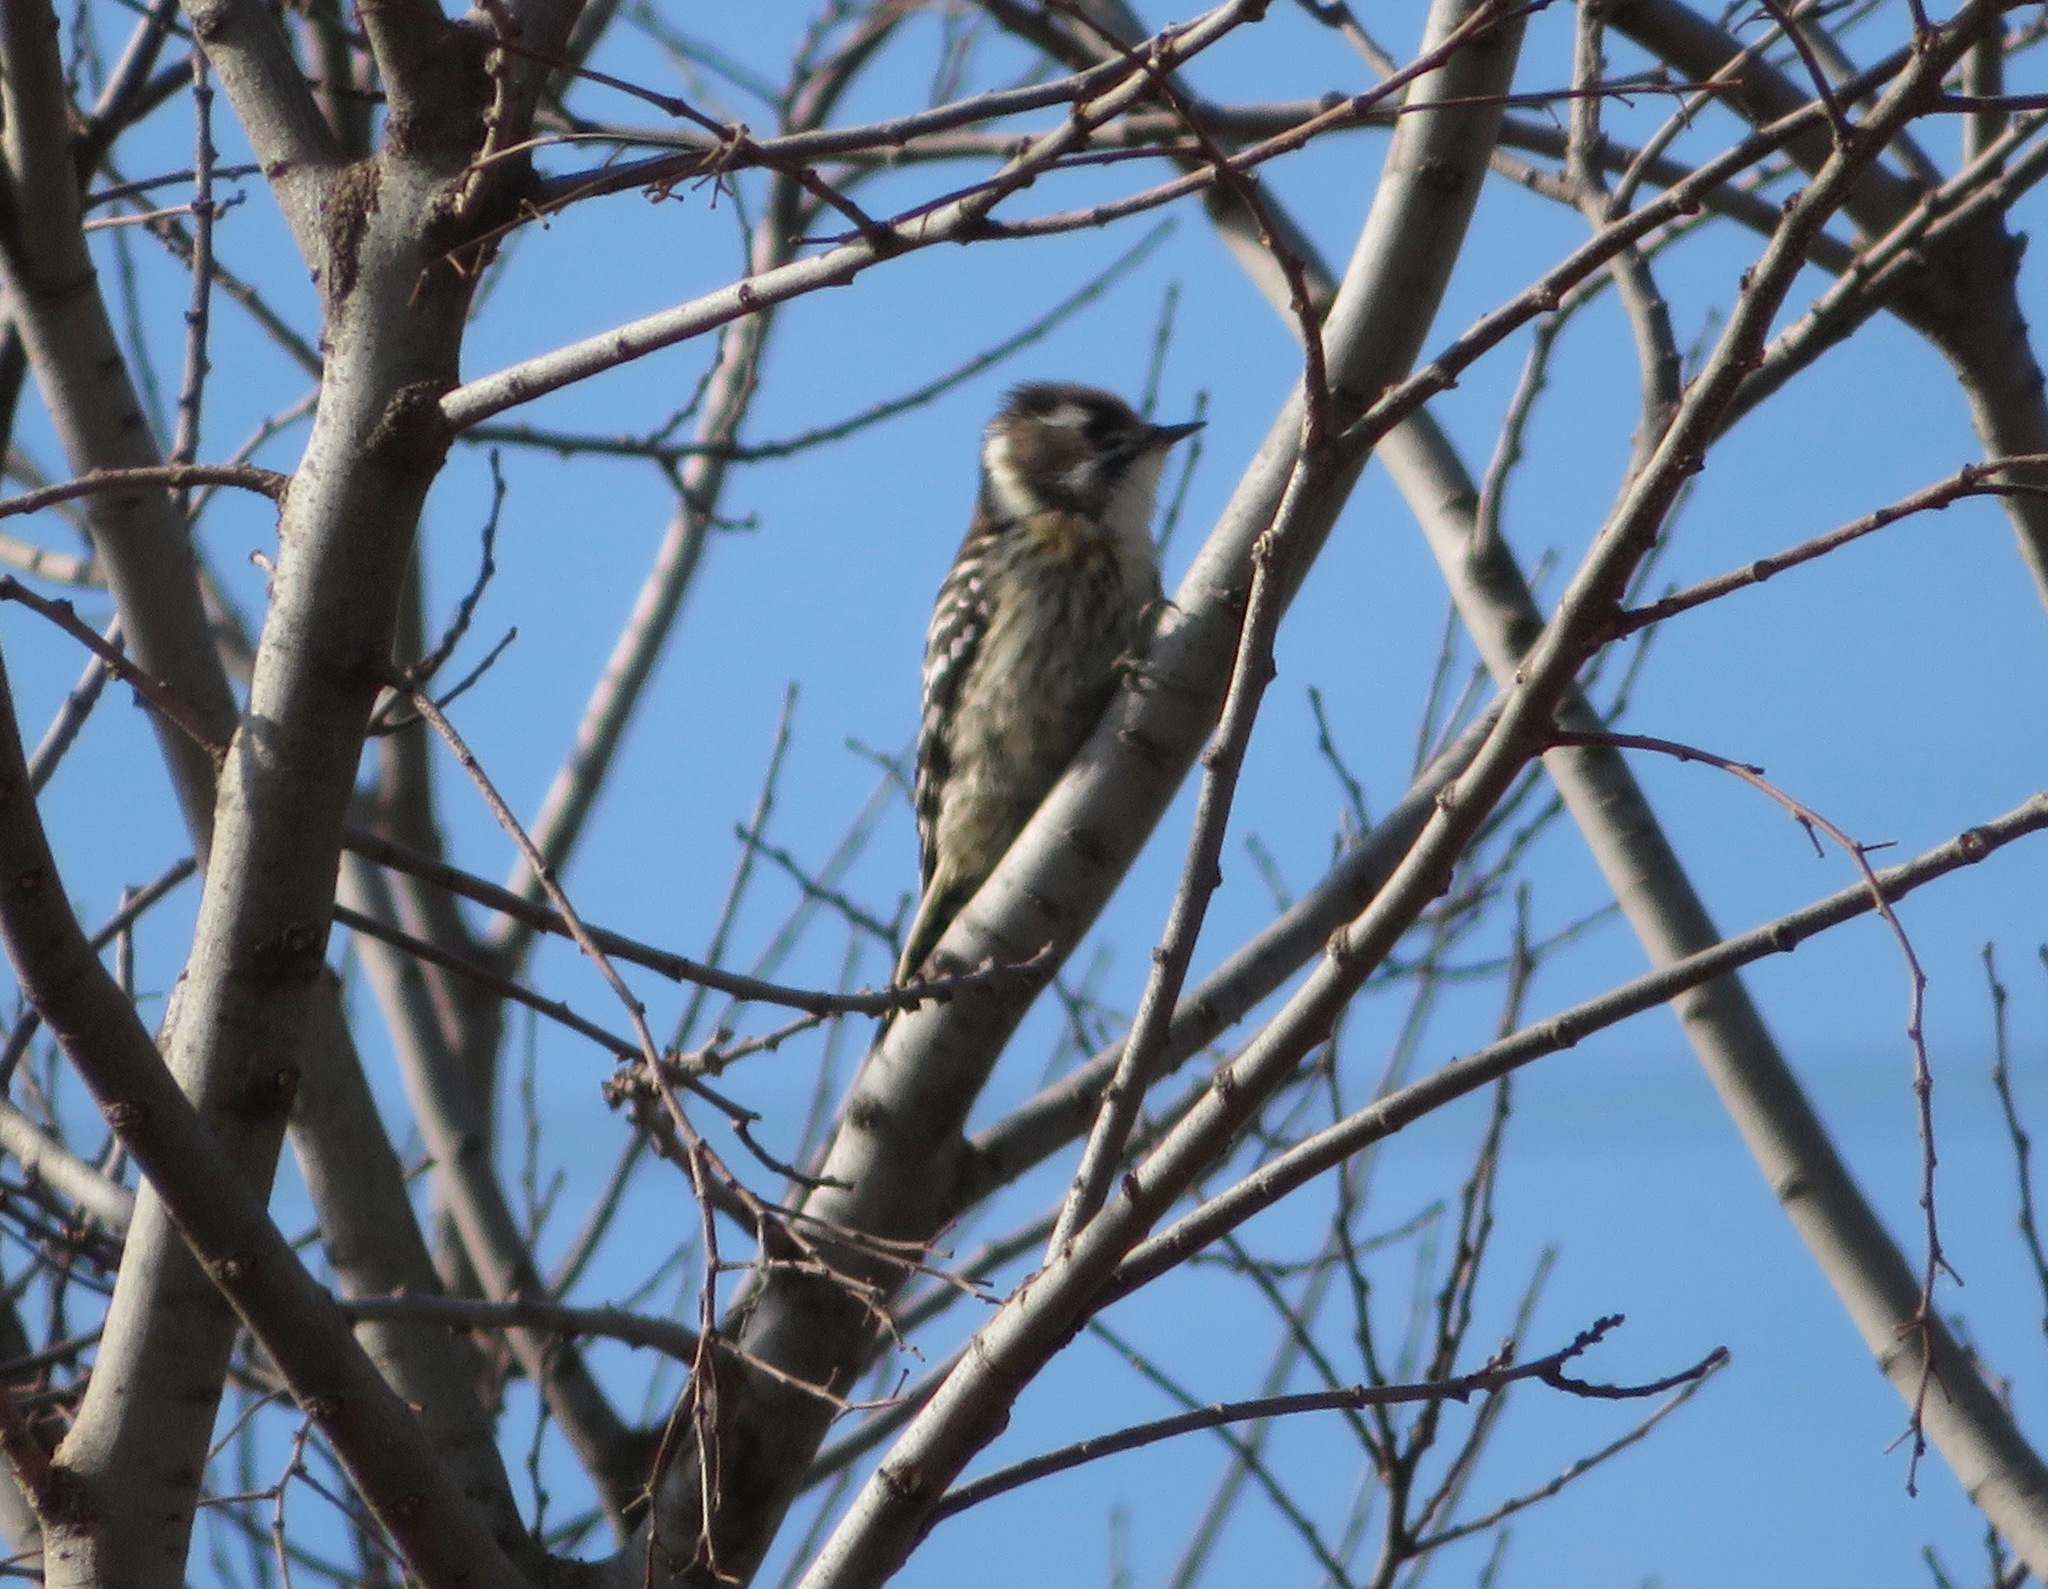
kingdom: Animalia
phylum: Chordata
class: Aves
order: Piciformes
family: Picidae
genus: Yungipicus
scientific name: Yungipicus kizuki
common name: Japanese pygmy woodpecker
